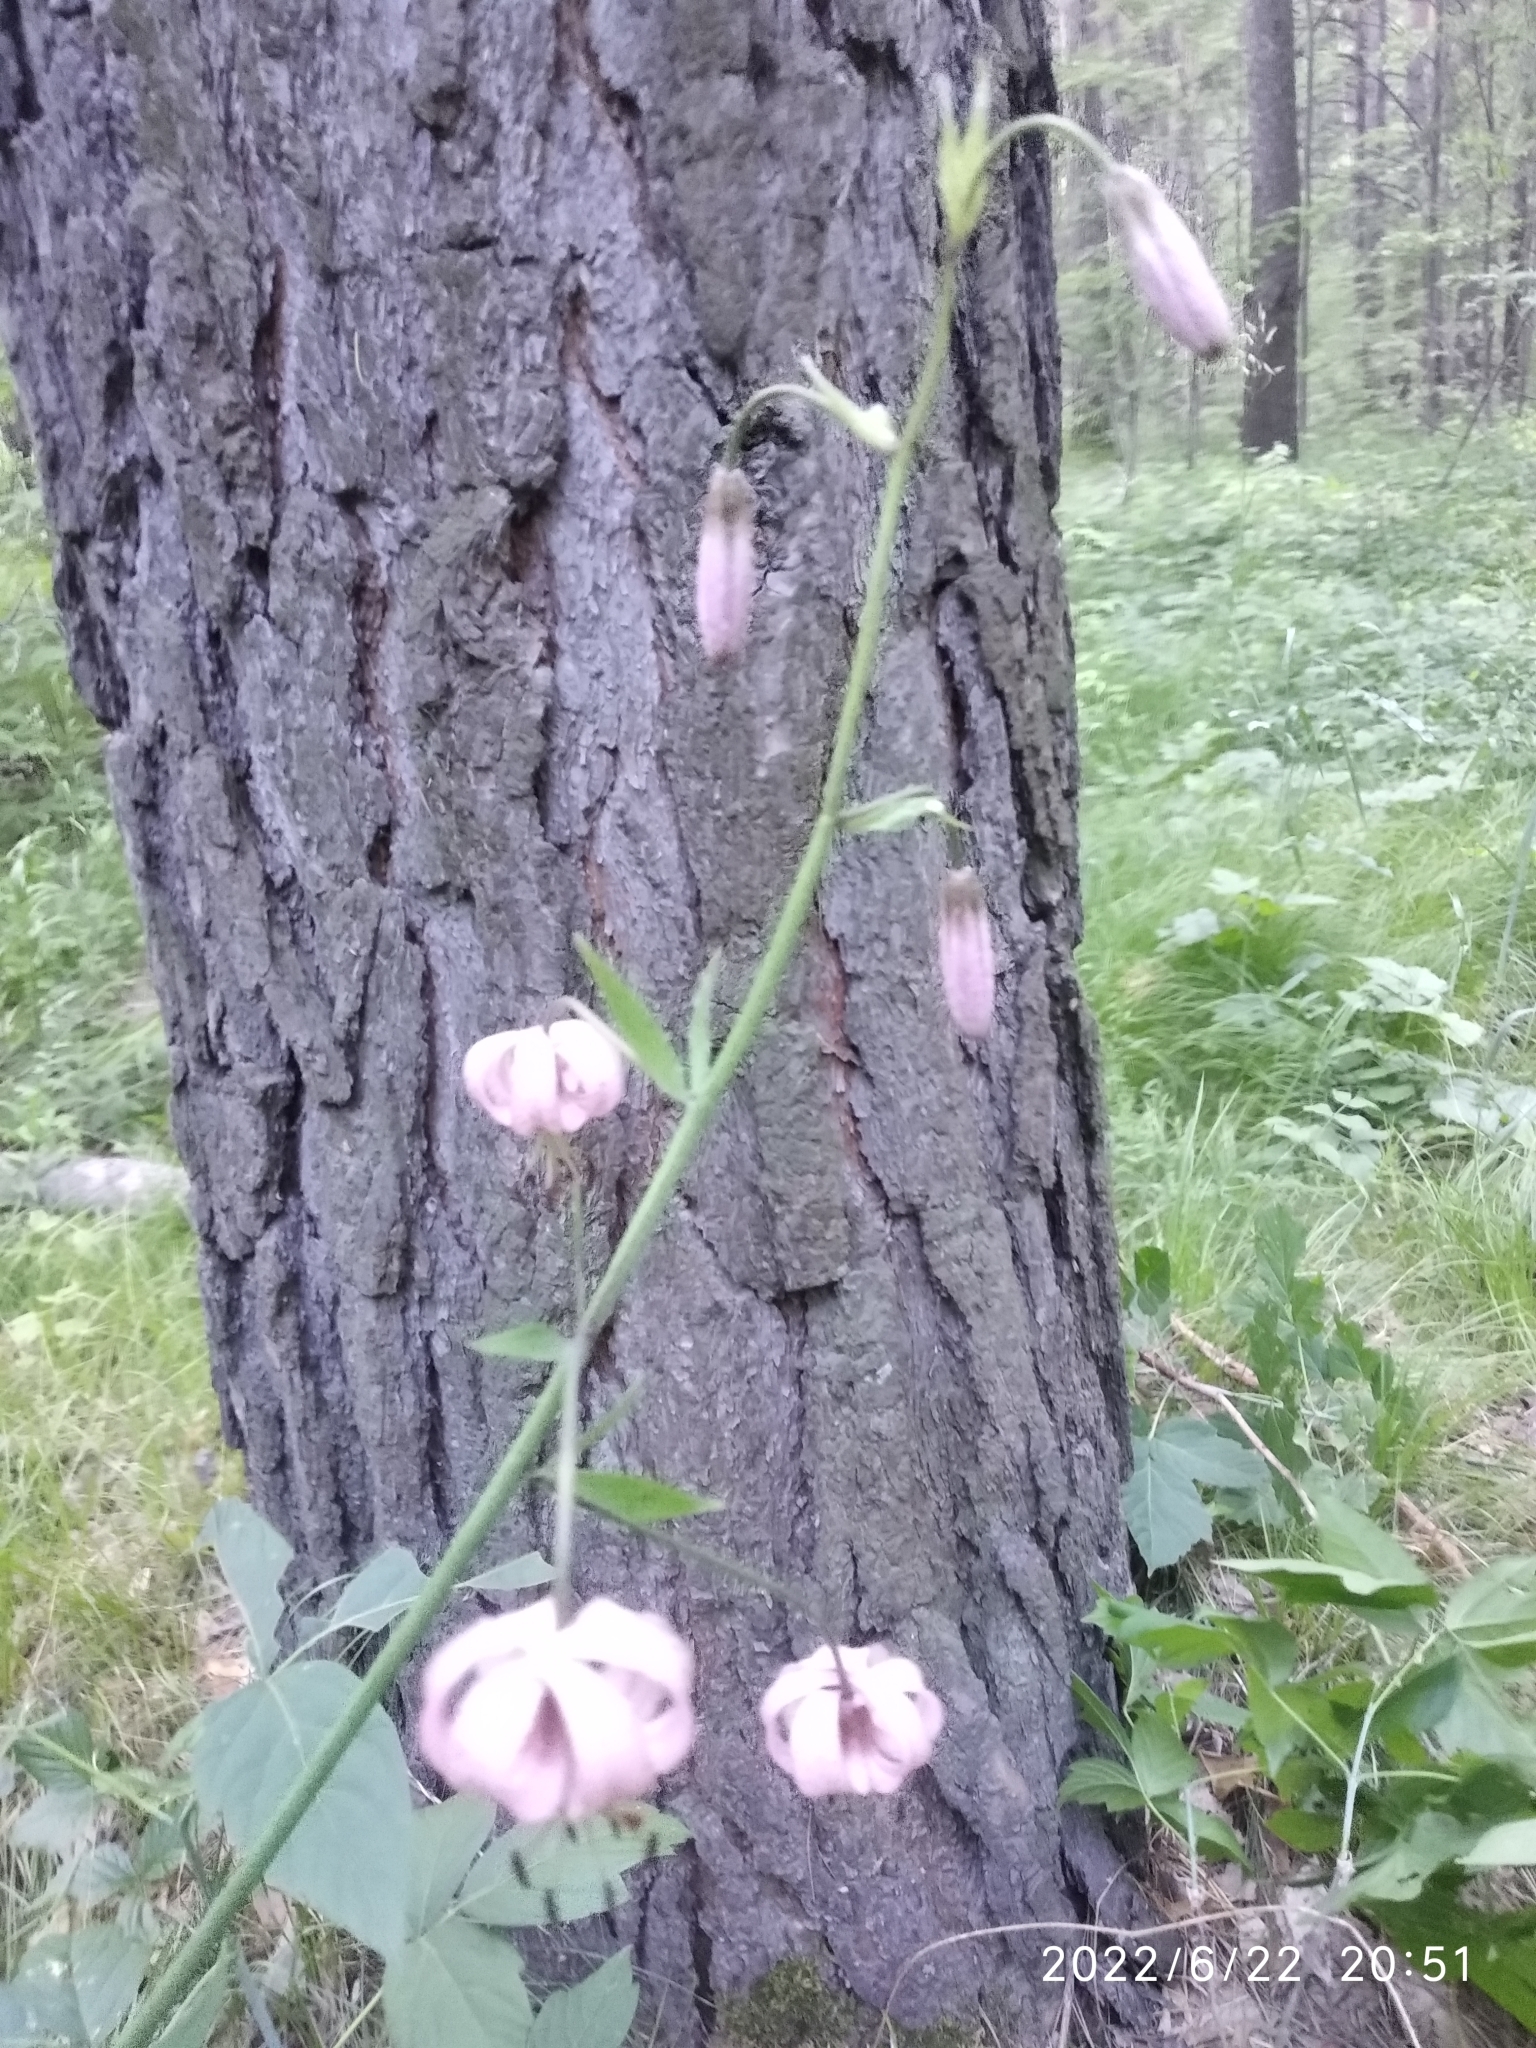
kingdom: Plantae
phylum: Tracheophyta
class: Liliopsida
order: Liliales
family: Liliaceae
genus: Lilium
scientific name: Lilium martagon
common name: Martagon lily
